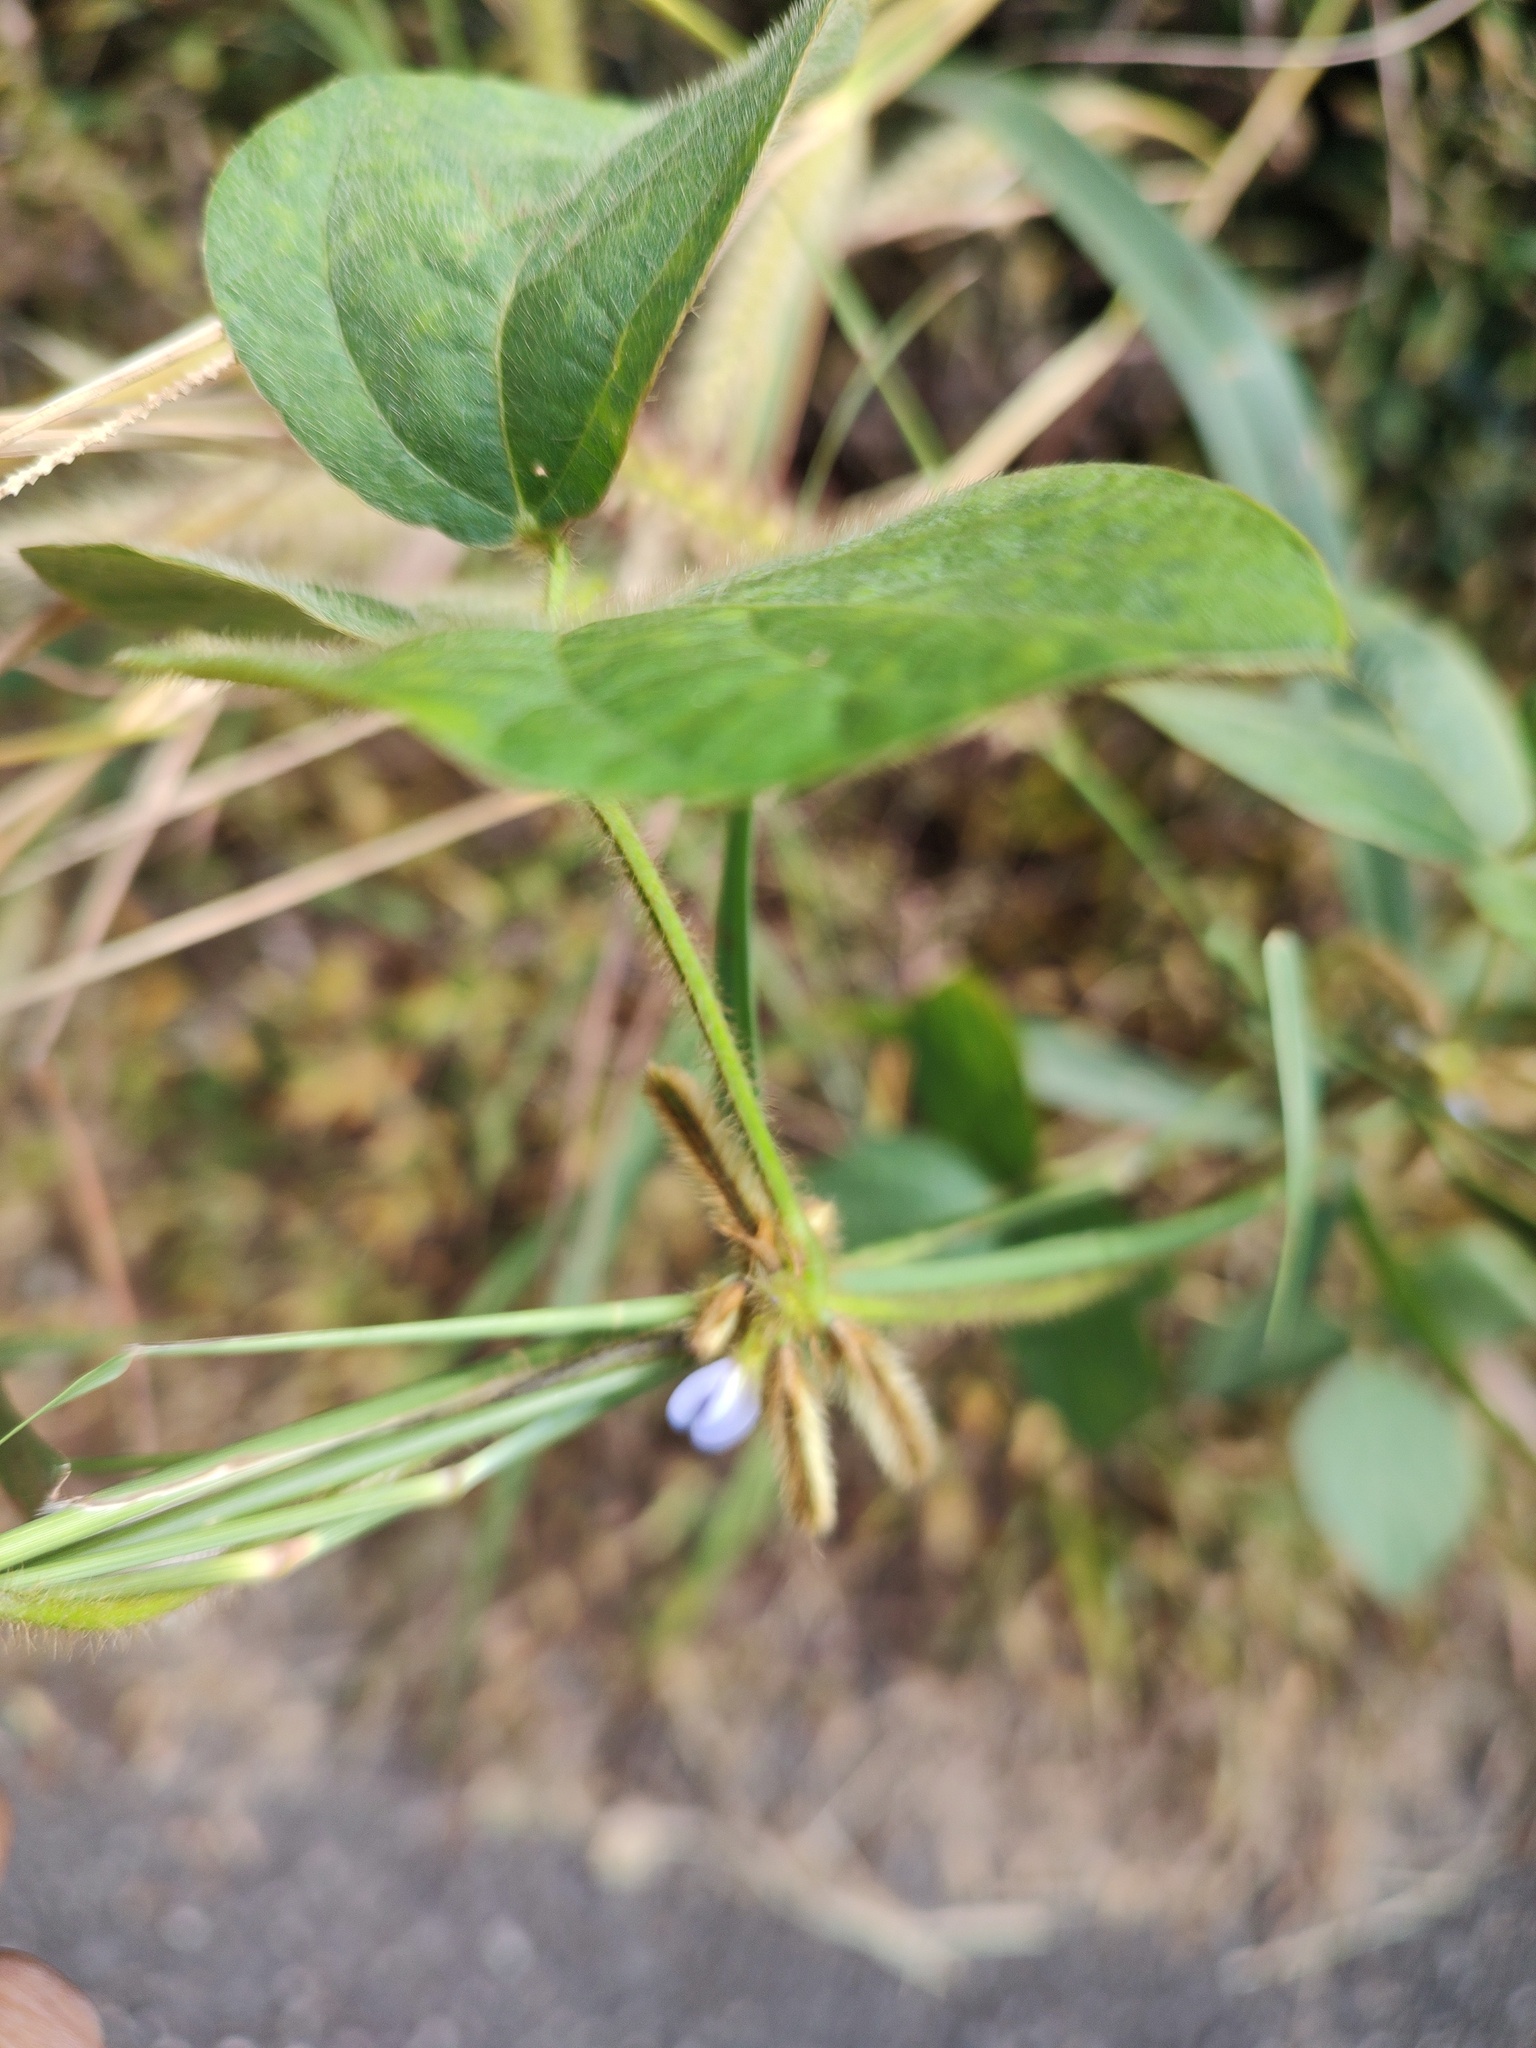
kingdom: Plantae
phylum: Tracheophyta
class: Magnoliopsida
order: Fabales
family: Fabaceae
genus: Calopogonium
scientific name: Calopogonium mucunoides
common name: Calopo
